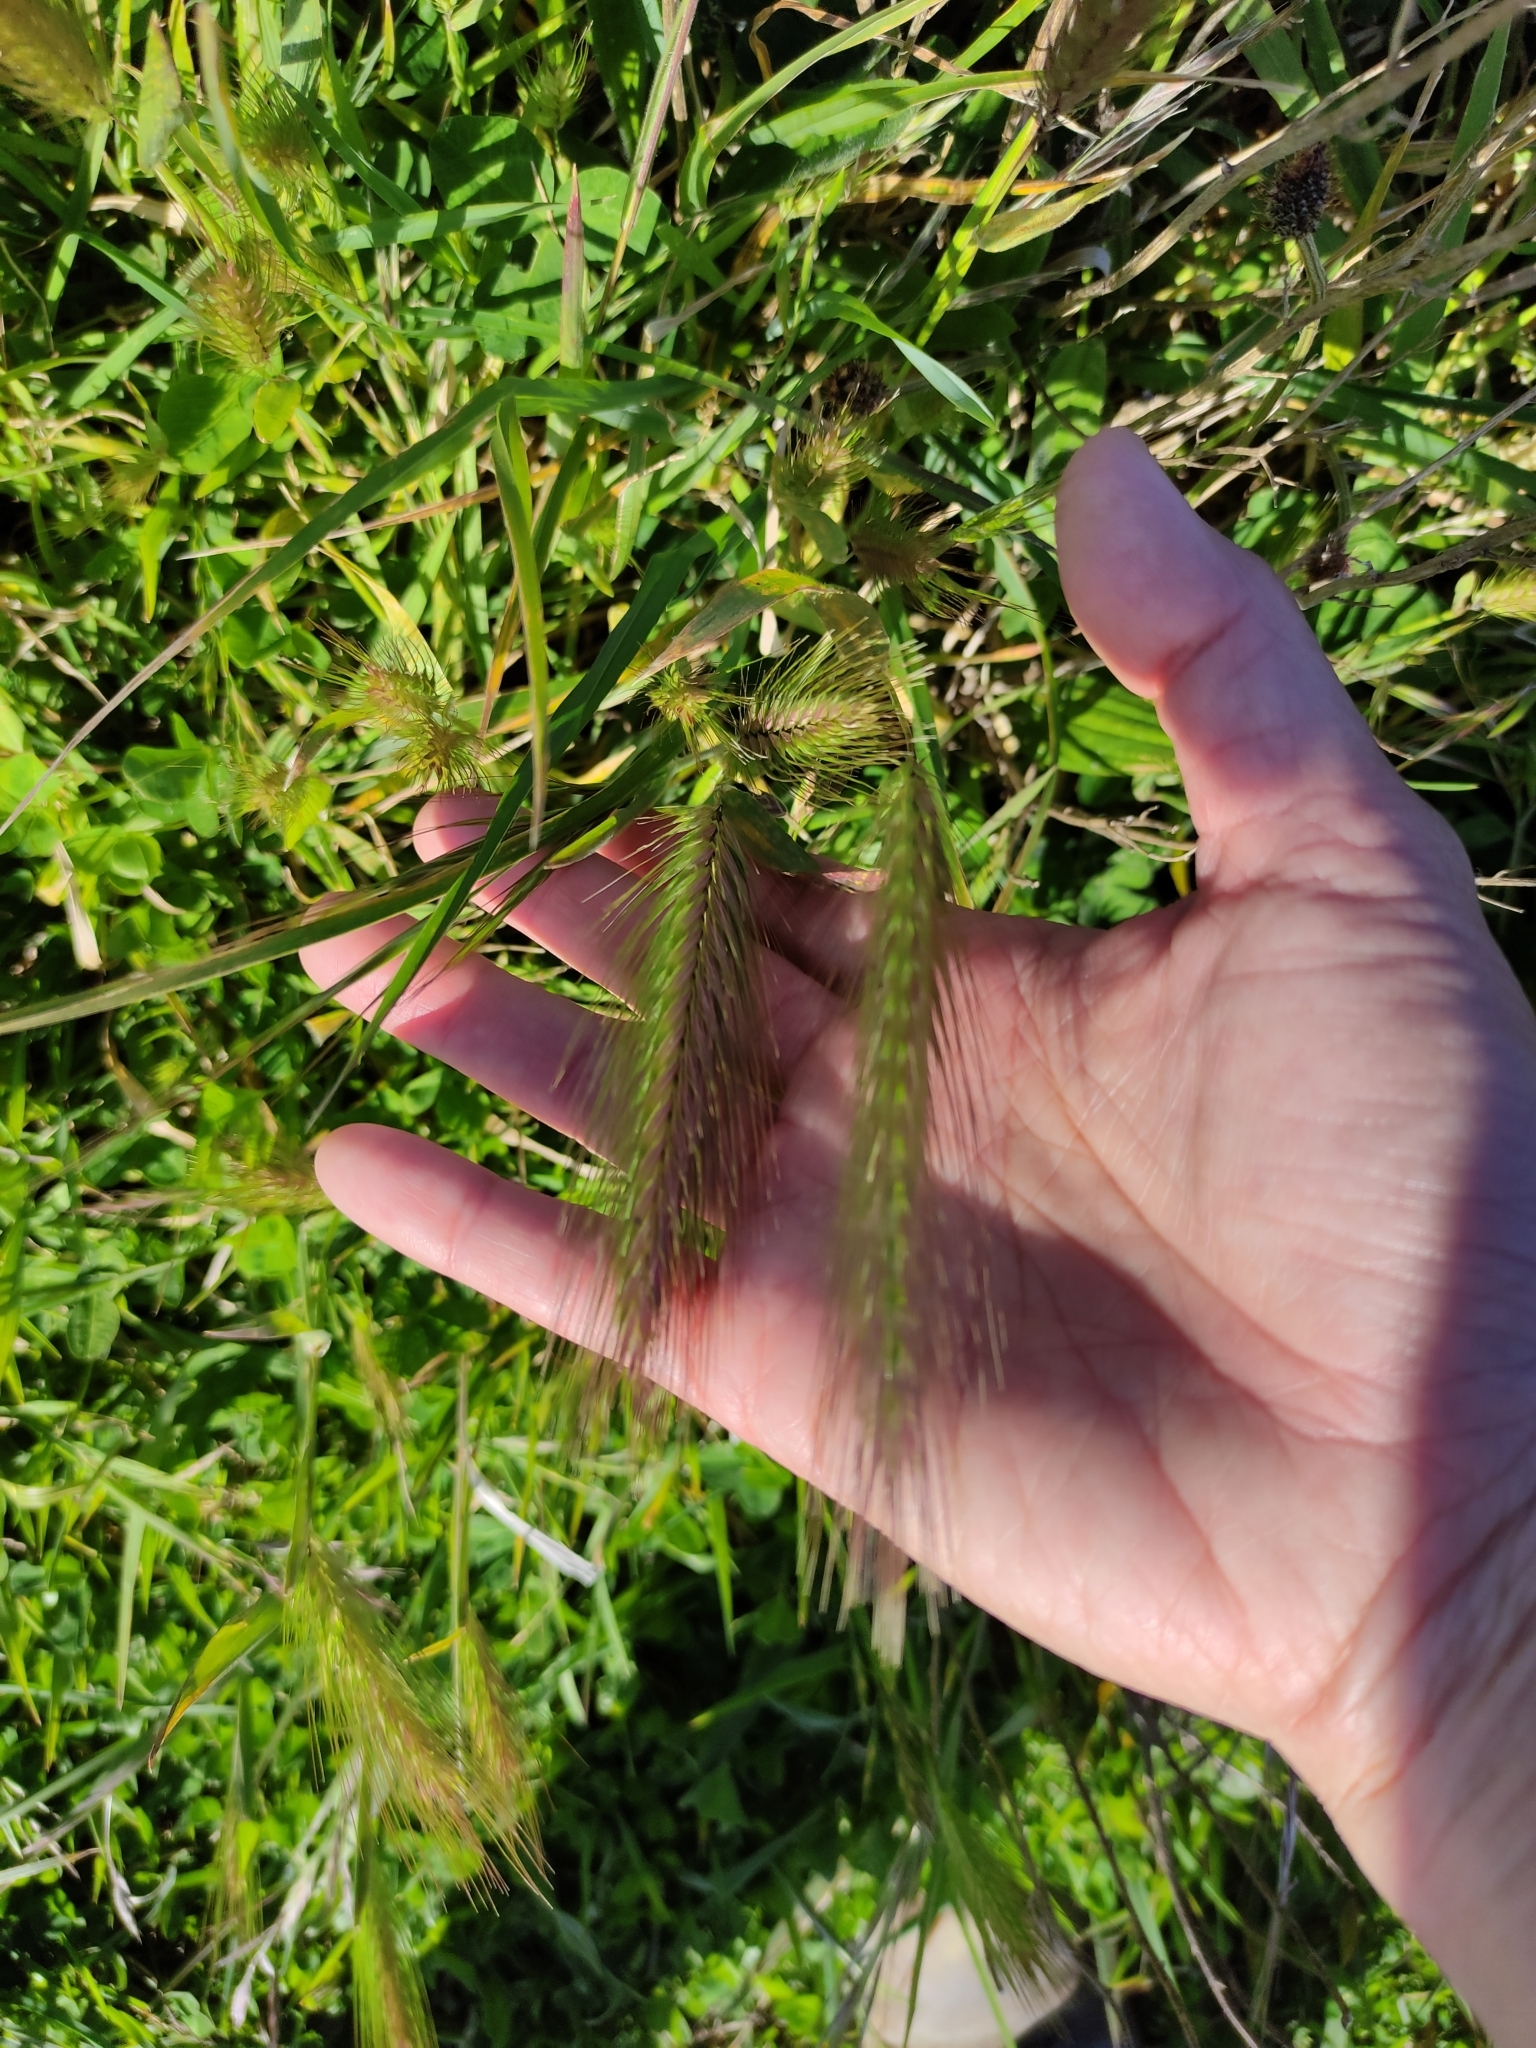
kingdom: Plantae
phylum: Tracheophyta
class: Liliopsida
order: Poales
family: Poaceae
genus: Hordeum
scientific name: Hordeum murinum
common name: Wall barley
